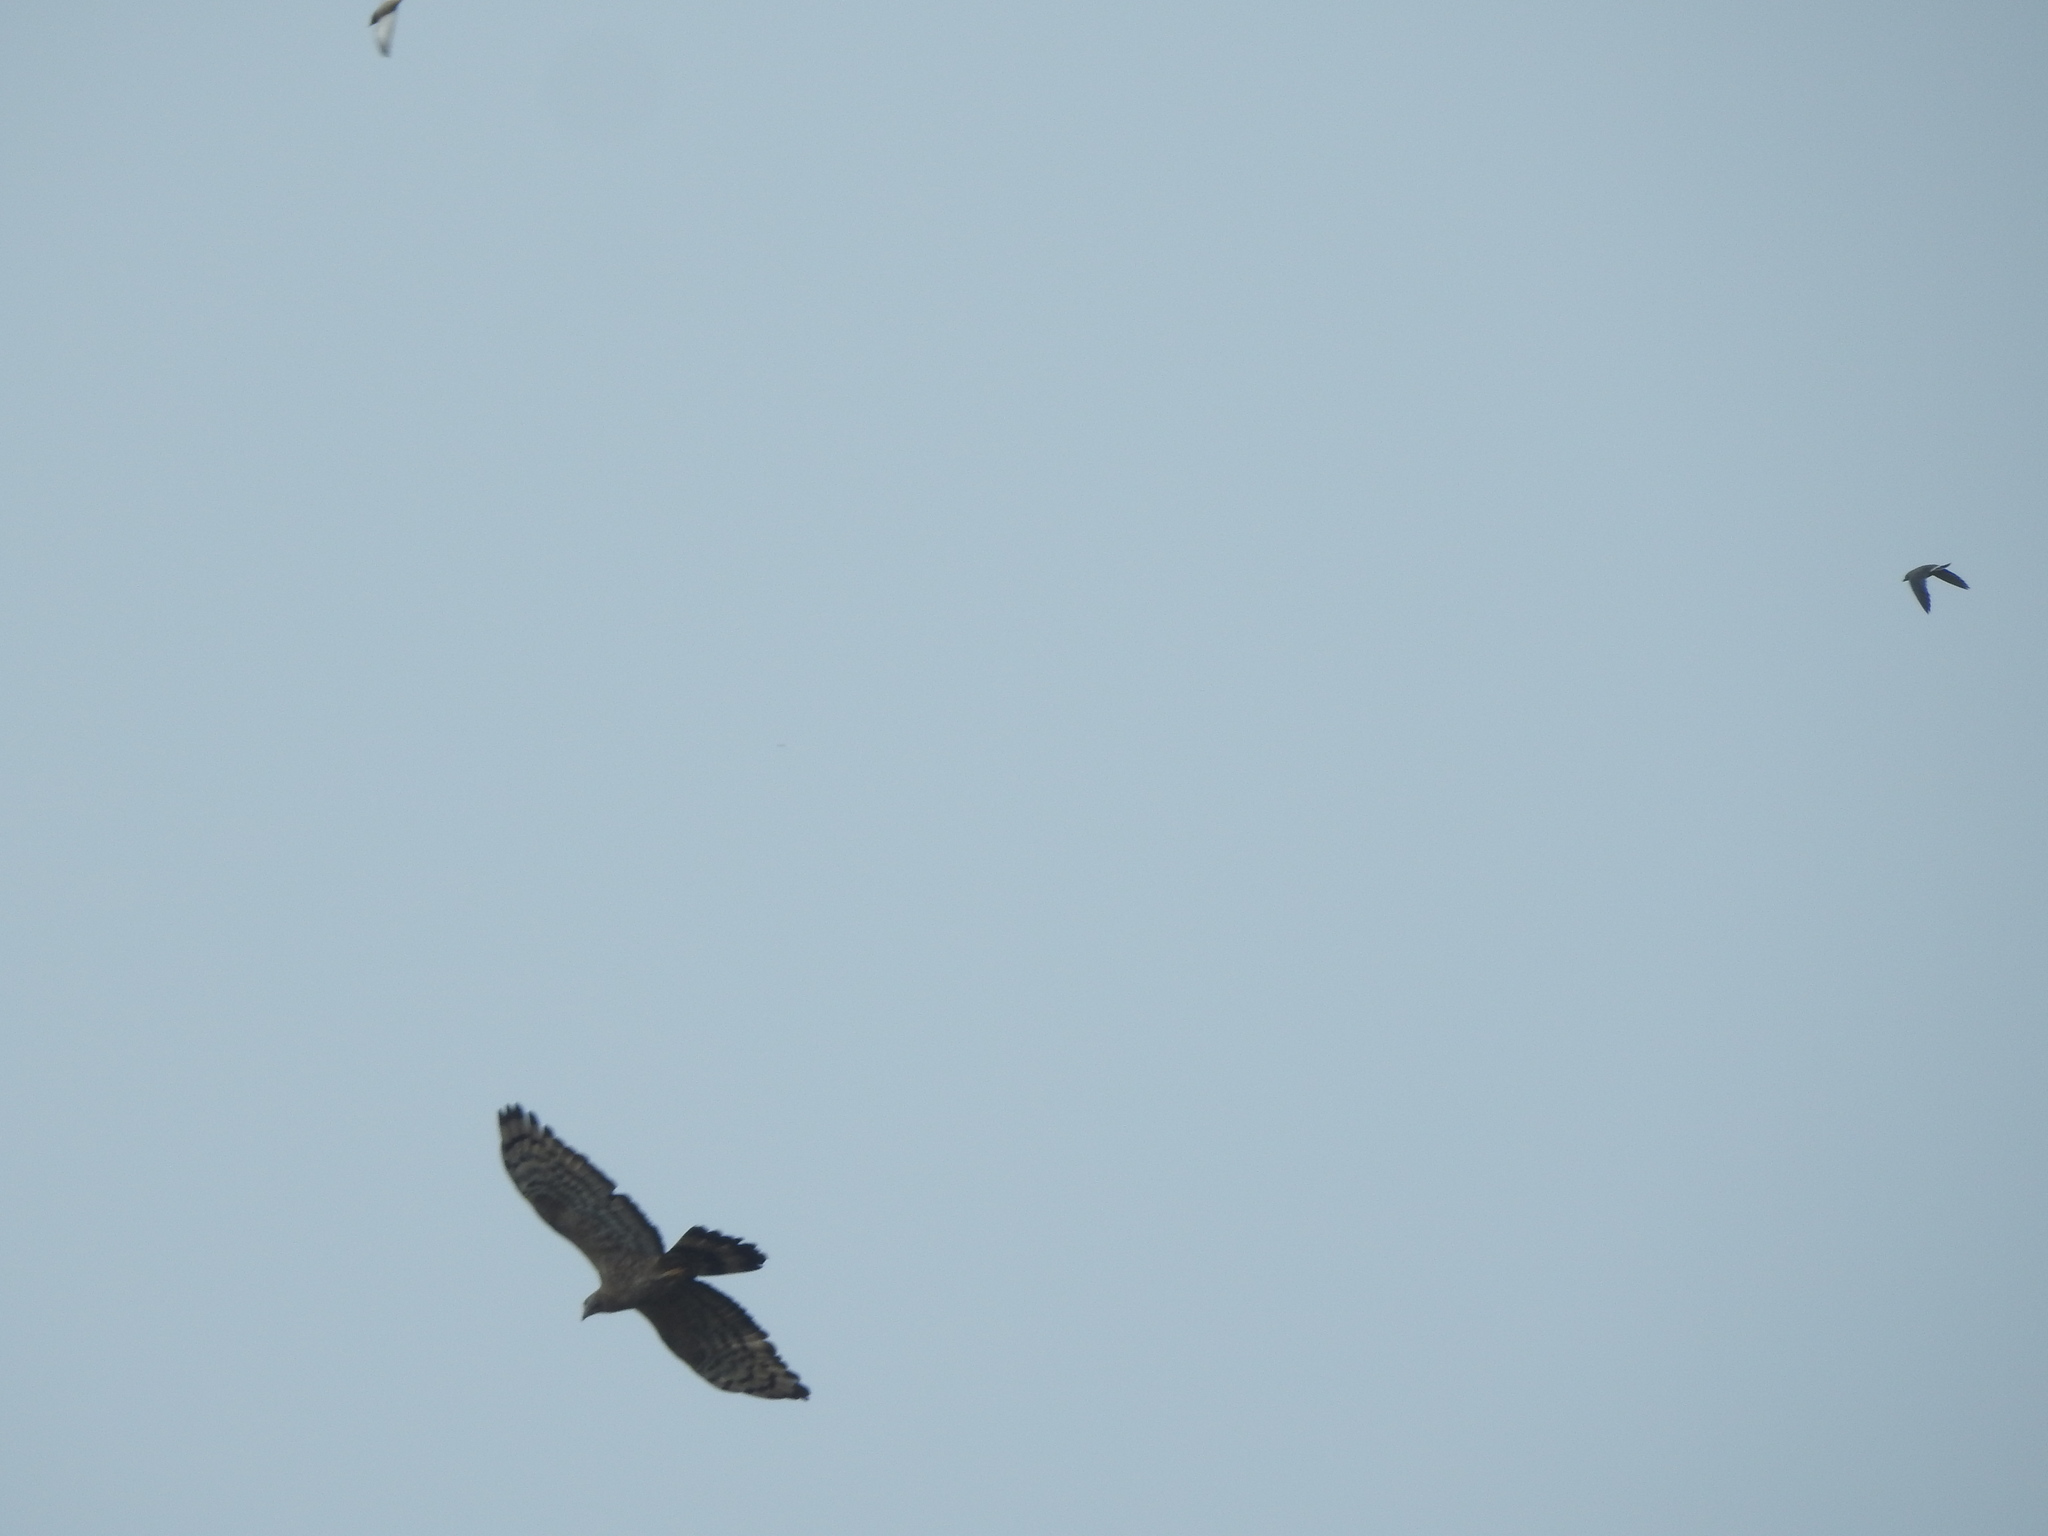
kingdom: Animalia
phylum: Chordata
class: Aves
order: Accipitriformes
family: Accipitridae
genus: Pernis
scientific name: Pernis ptilorhynchus
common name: Crested honey buzzard
